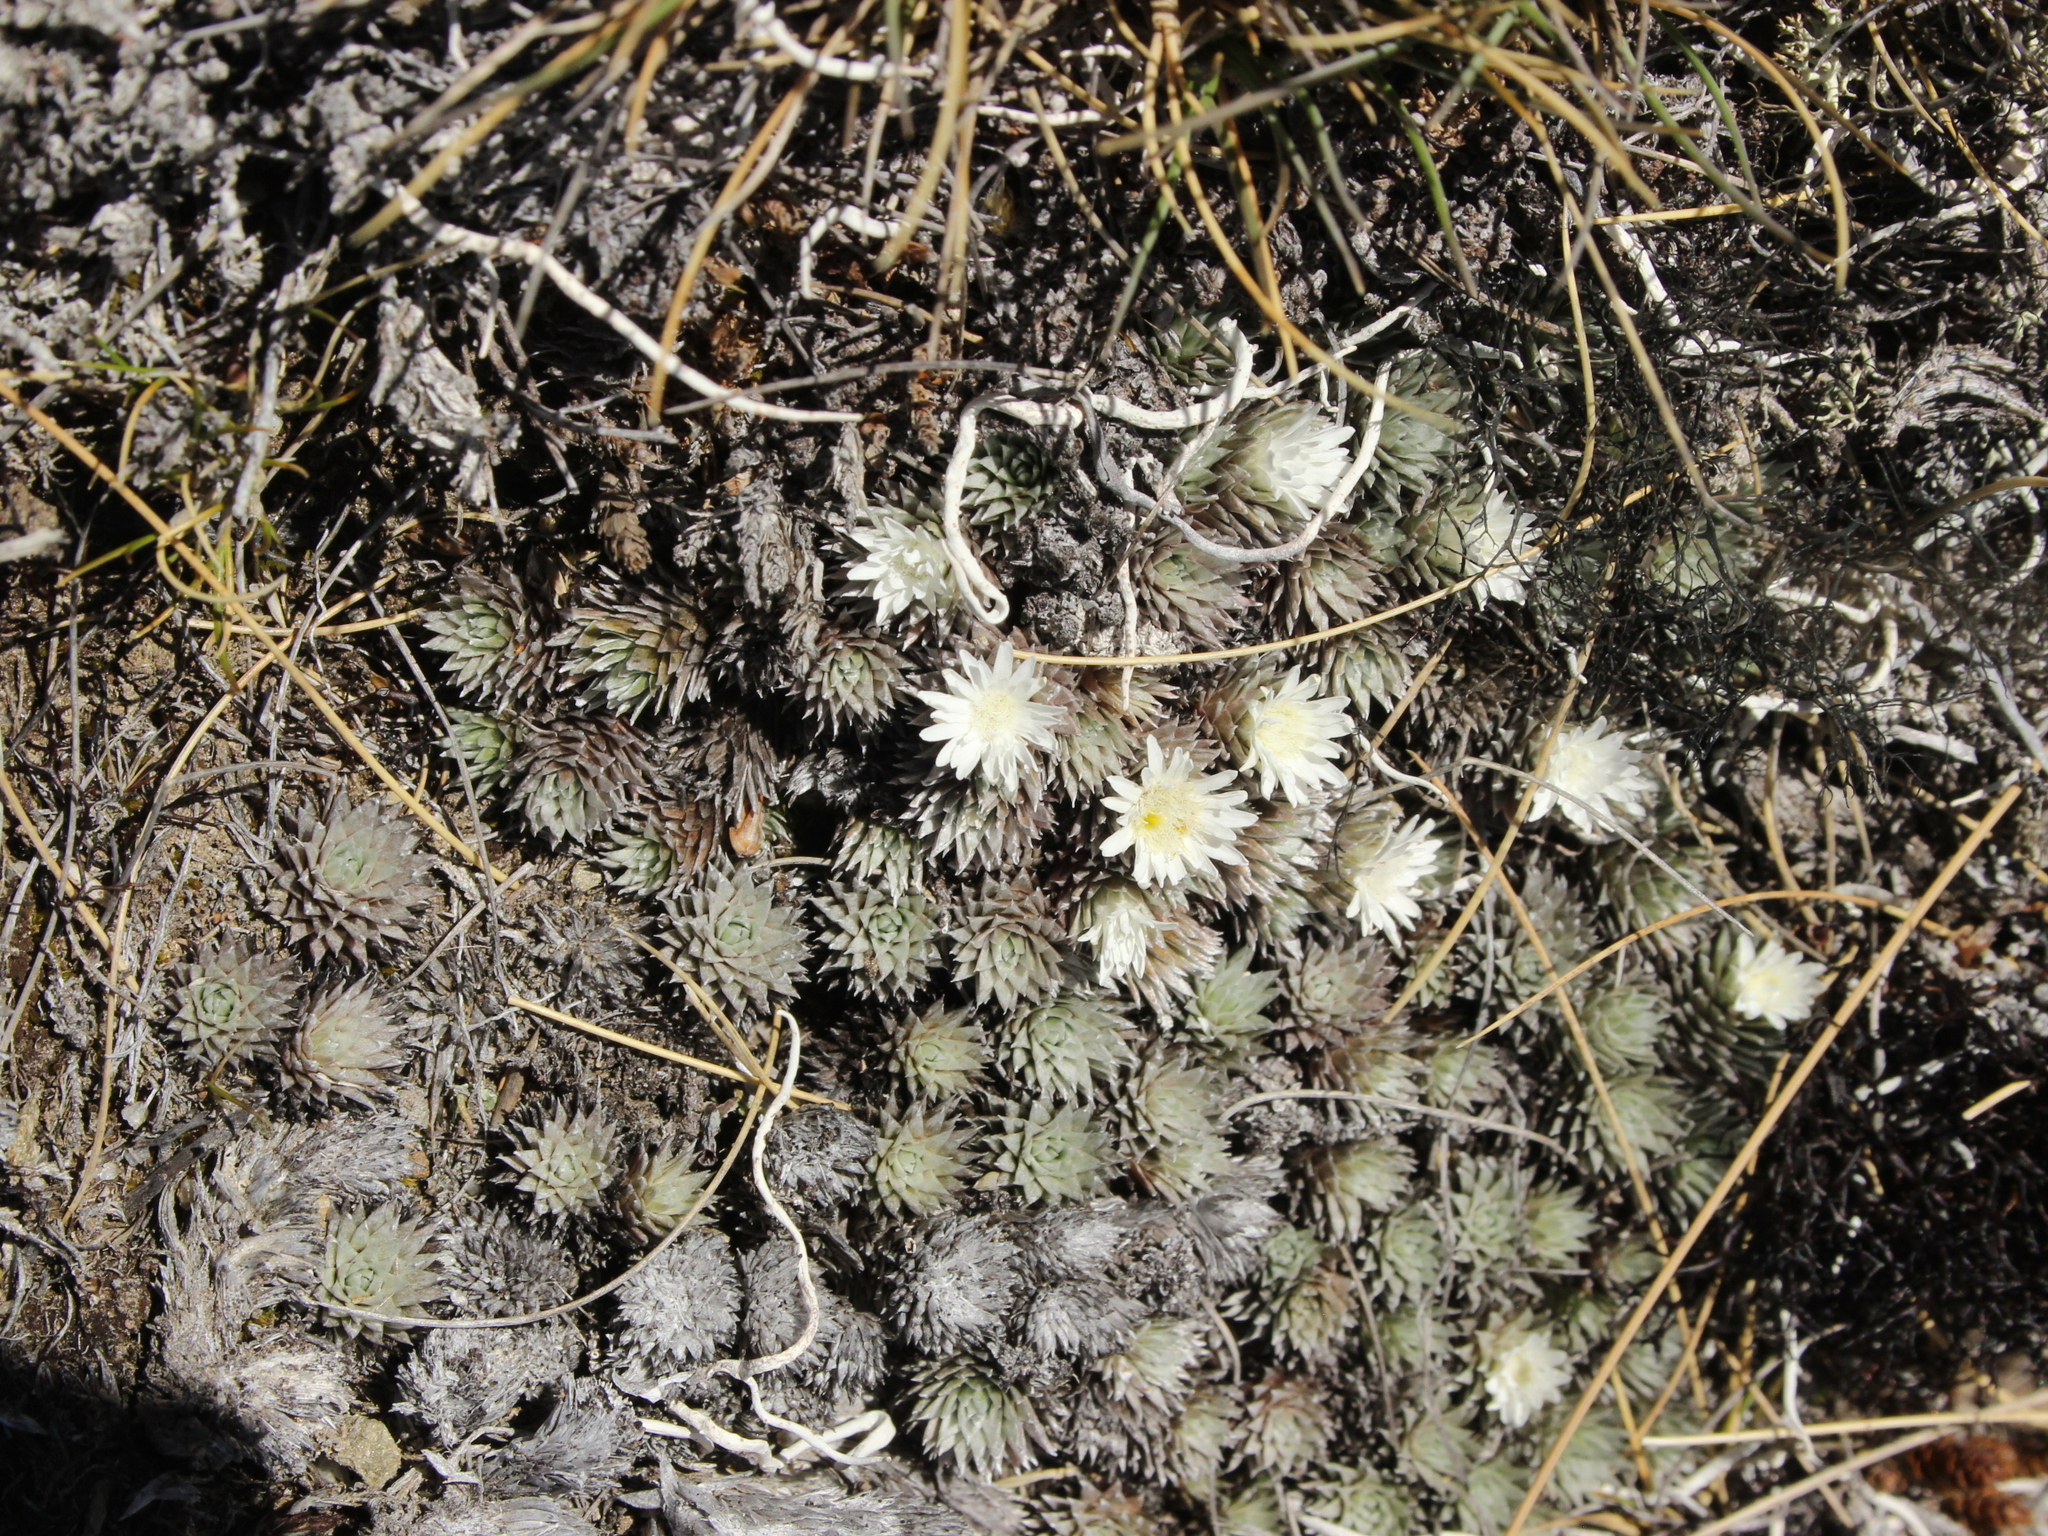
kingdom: Plantae
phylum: Tracheophyta
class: Magnoliopsida
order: Asterales
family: Asteraceae
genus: Raoulia
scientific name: Raoulia grandiflora
